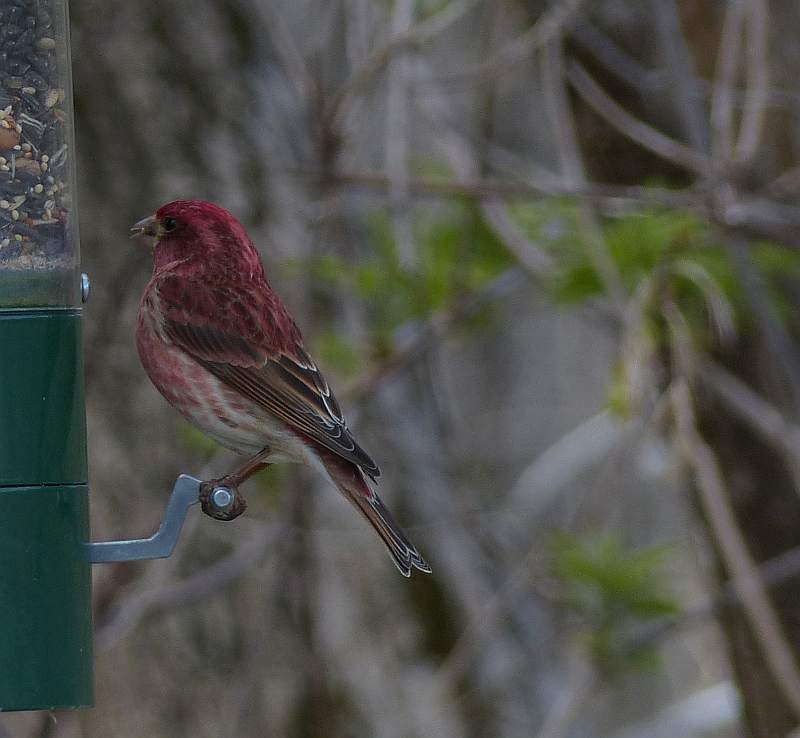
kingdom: Animalia
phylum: Chordata
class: Aves
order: Passeriformes
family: Fringillidae
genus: Haemorhous
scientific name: Haemorhous purpureus
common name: Purple finch
